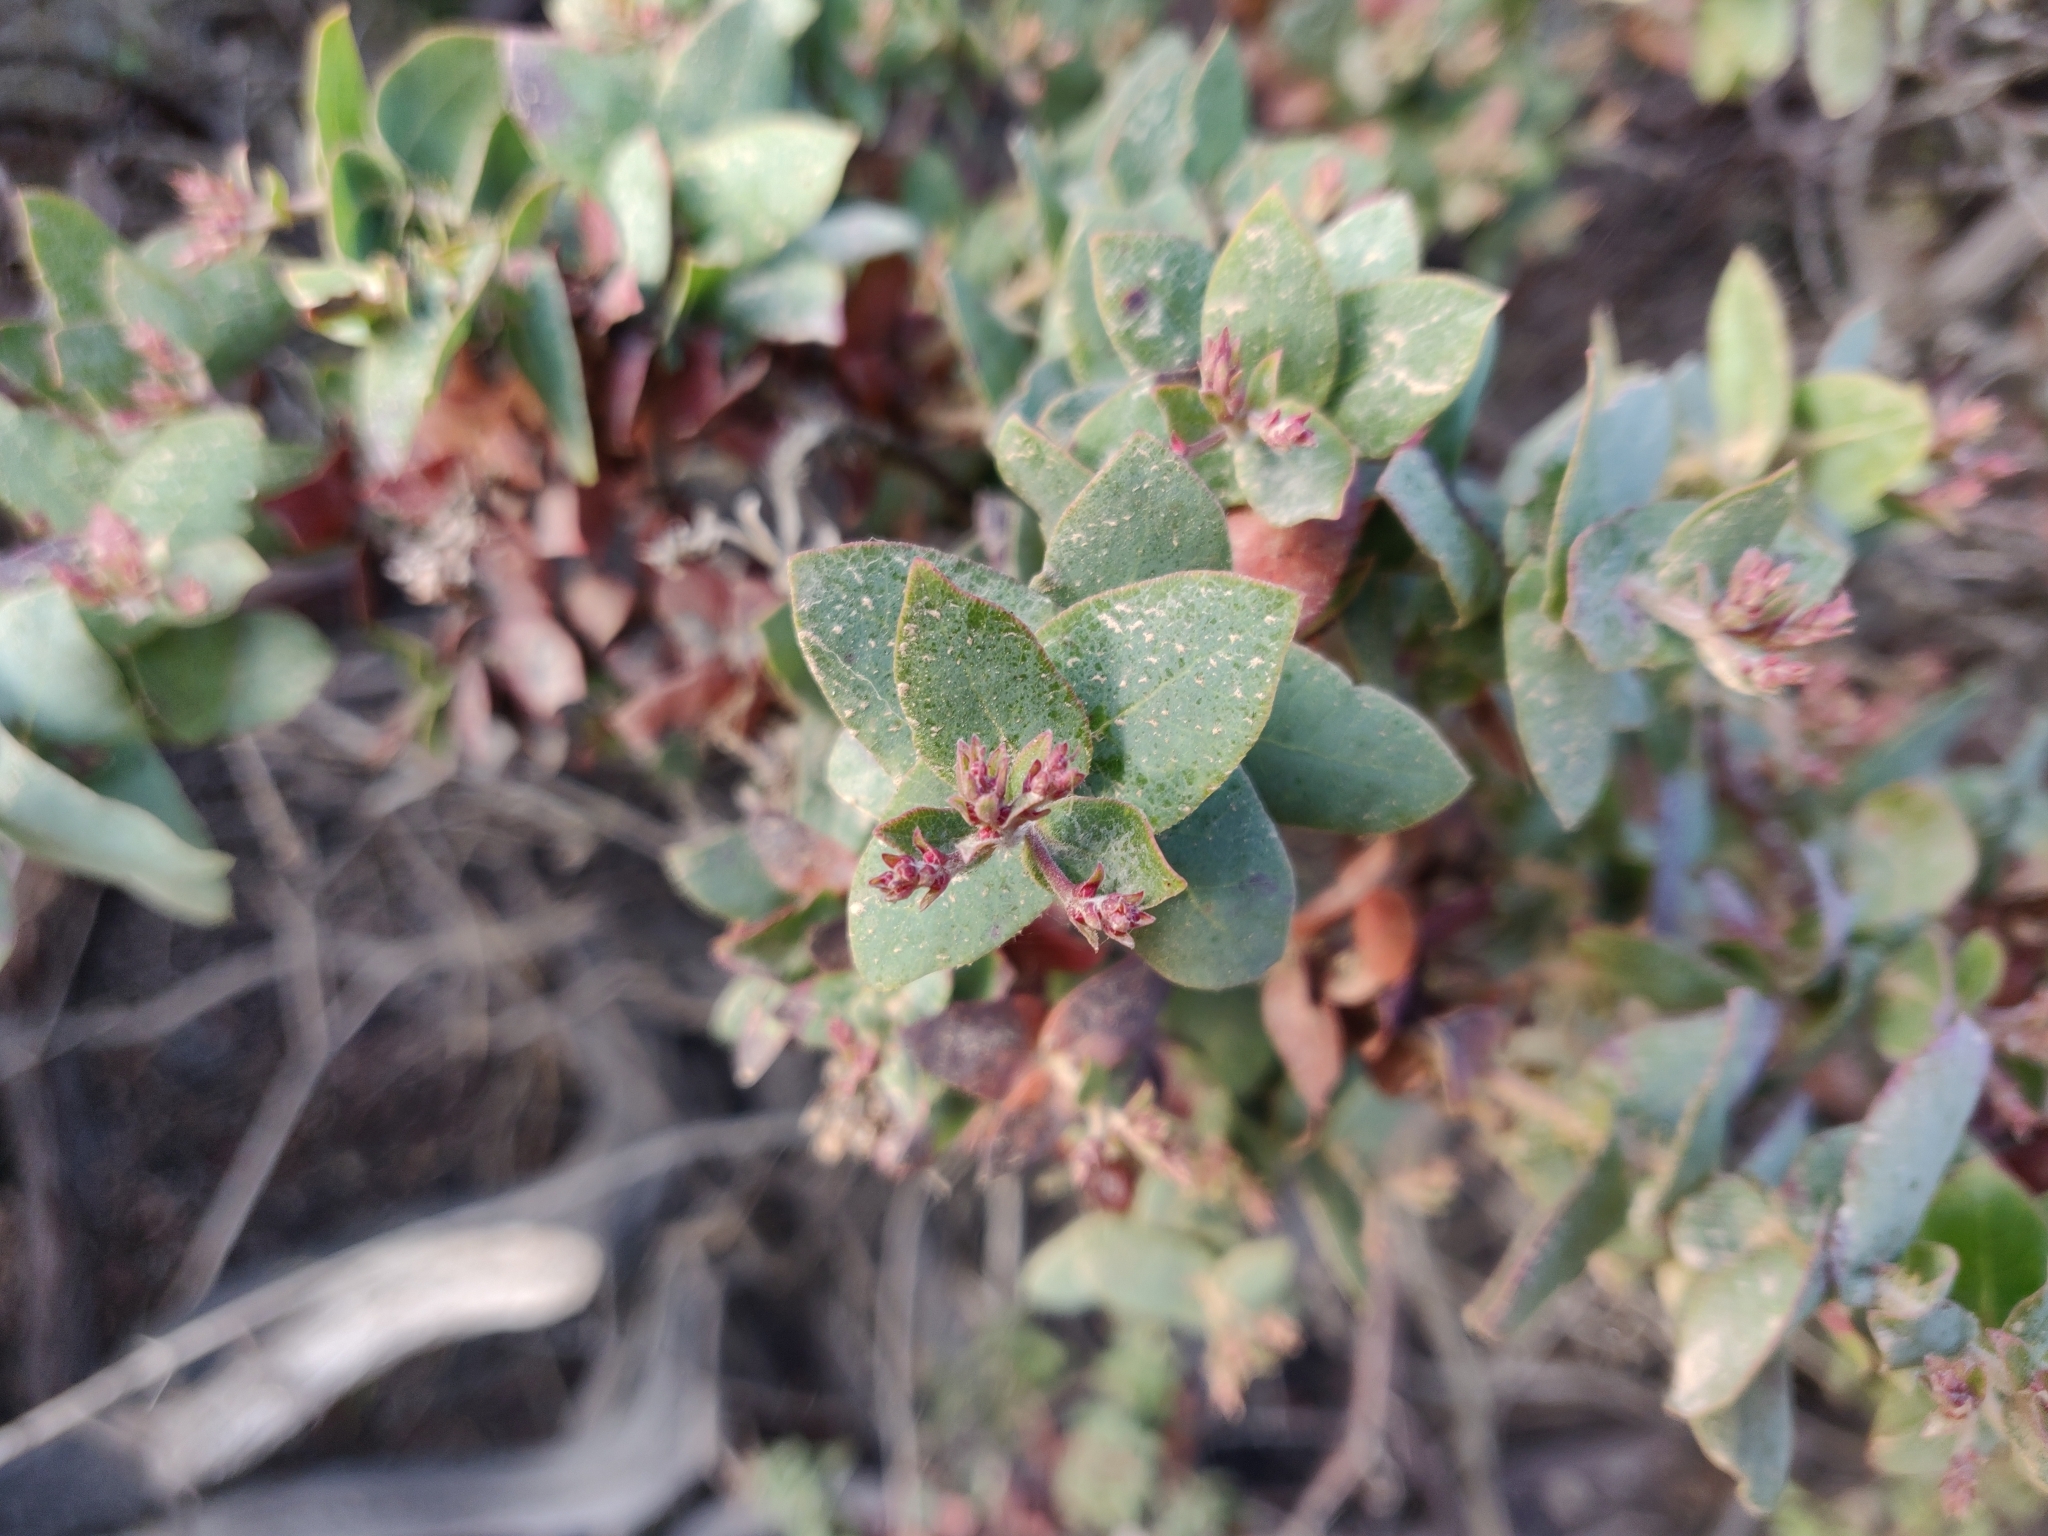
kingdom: Plantae
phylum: Tracheophyta
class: Magnoliopsida
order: Ericales
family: Ericaceae
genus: Arctostaphylos
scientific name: Arctostaphylos pajaroensis
